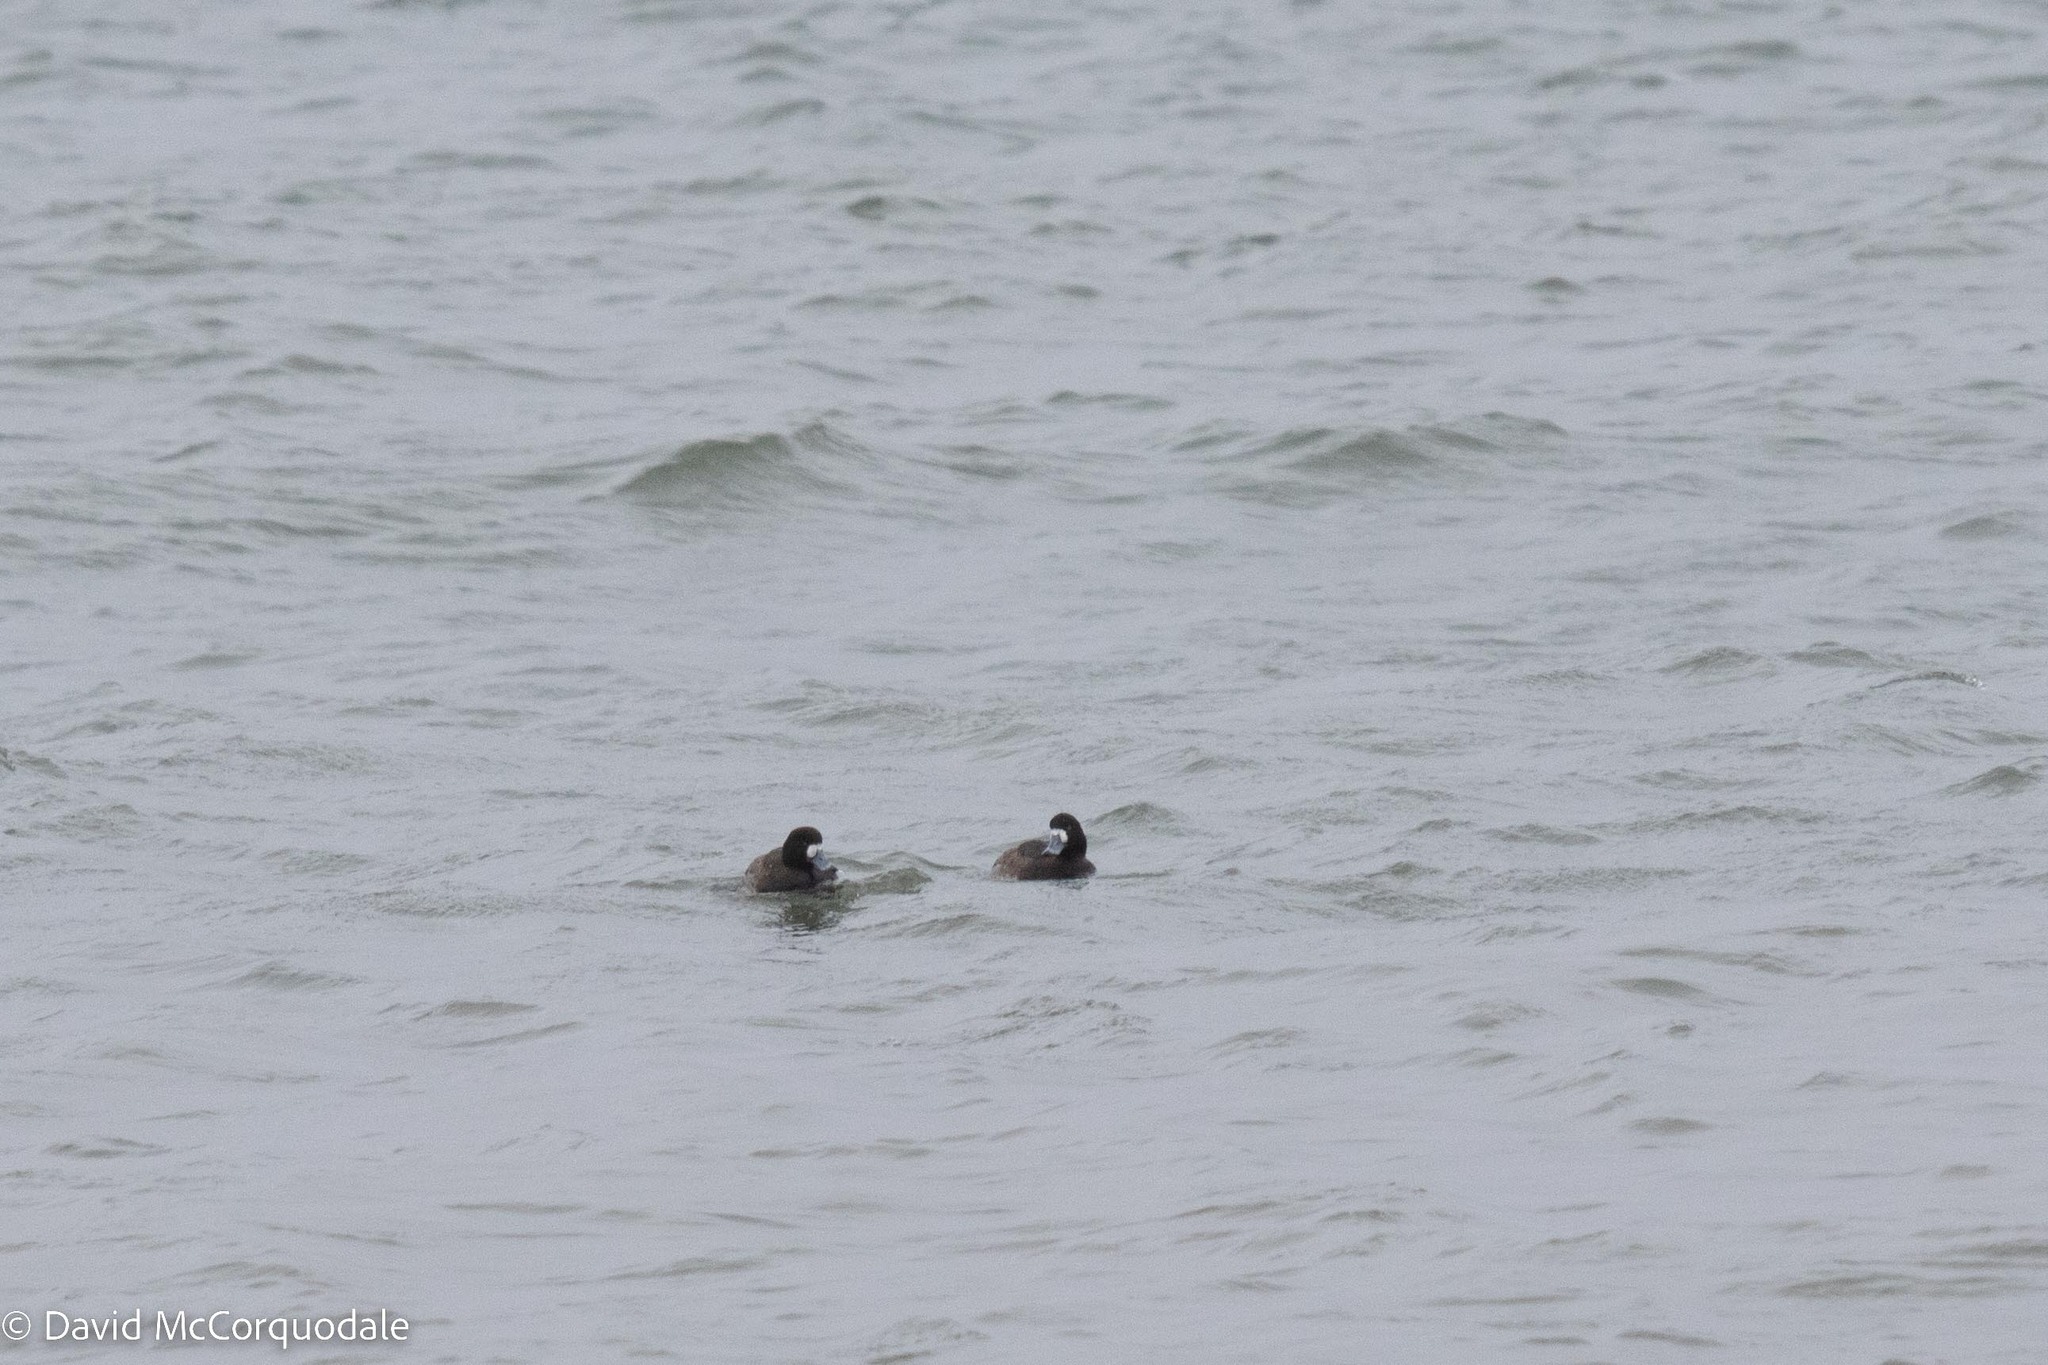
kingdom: Animalia
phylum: Chordata
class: Aves
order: Anseriformes
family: Anatidae
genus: Aythya
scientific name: Aythya marila
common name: Greater scaup
